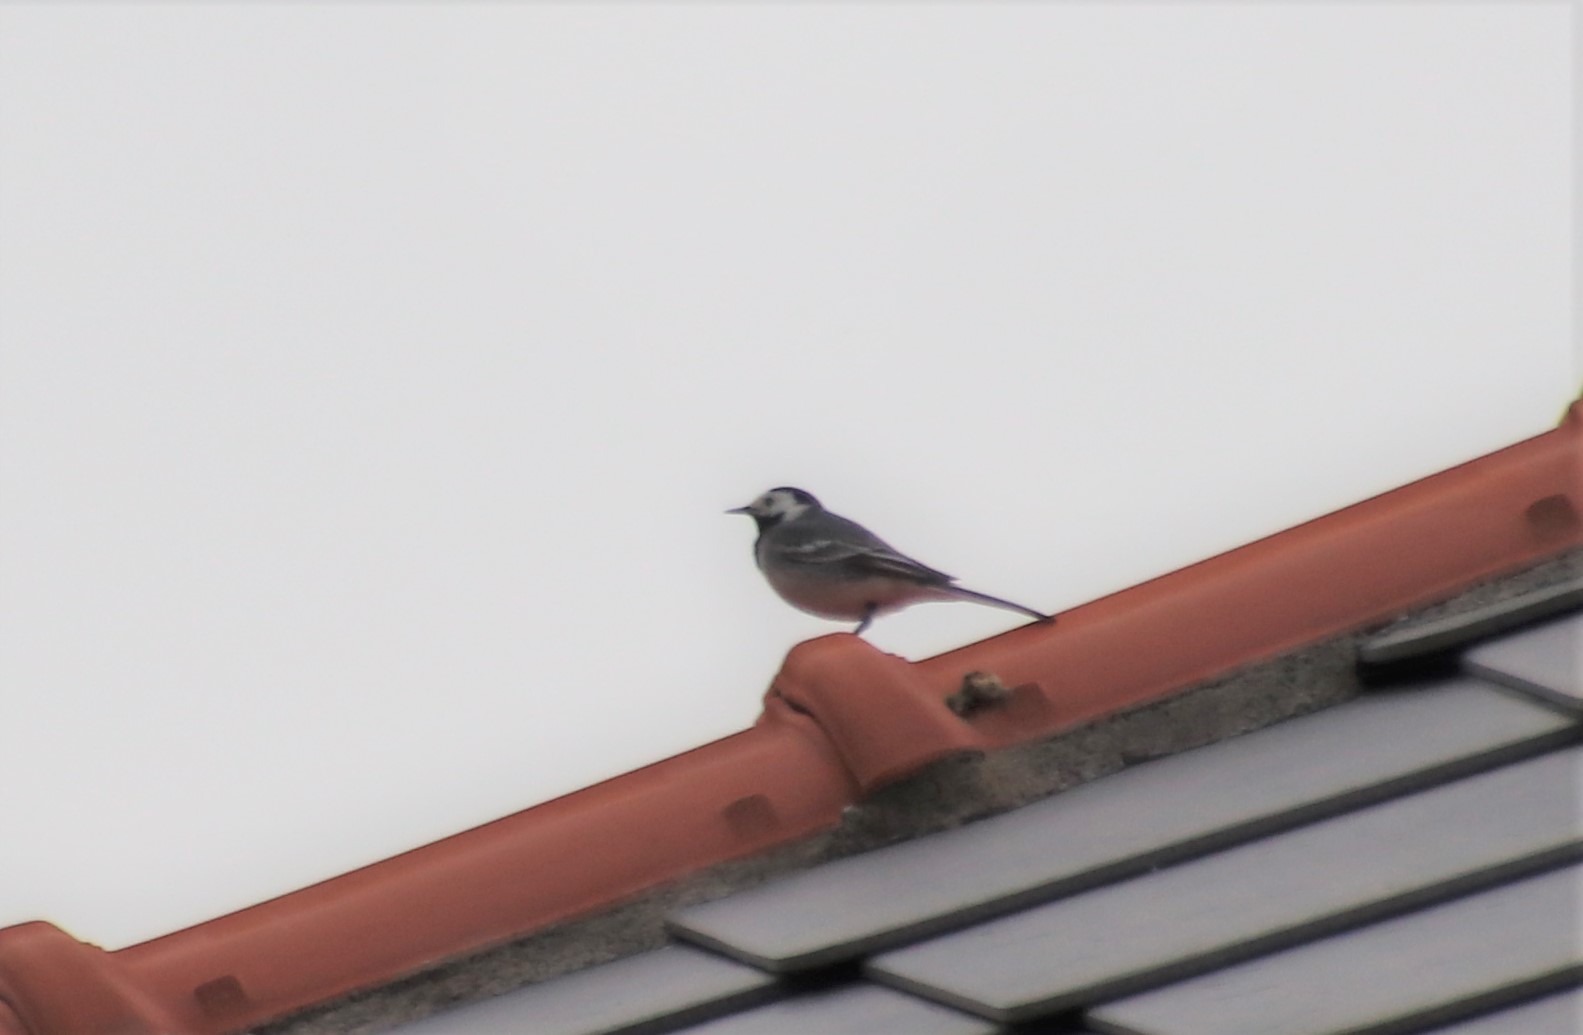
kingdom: Animalia
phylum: Chordata
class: Aves
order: Passeriformes
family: Motacillidae
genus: Motacilla
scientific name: Motacilla alba
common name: White wagtail
